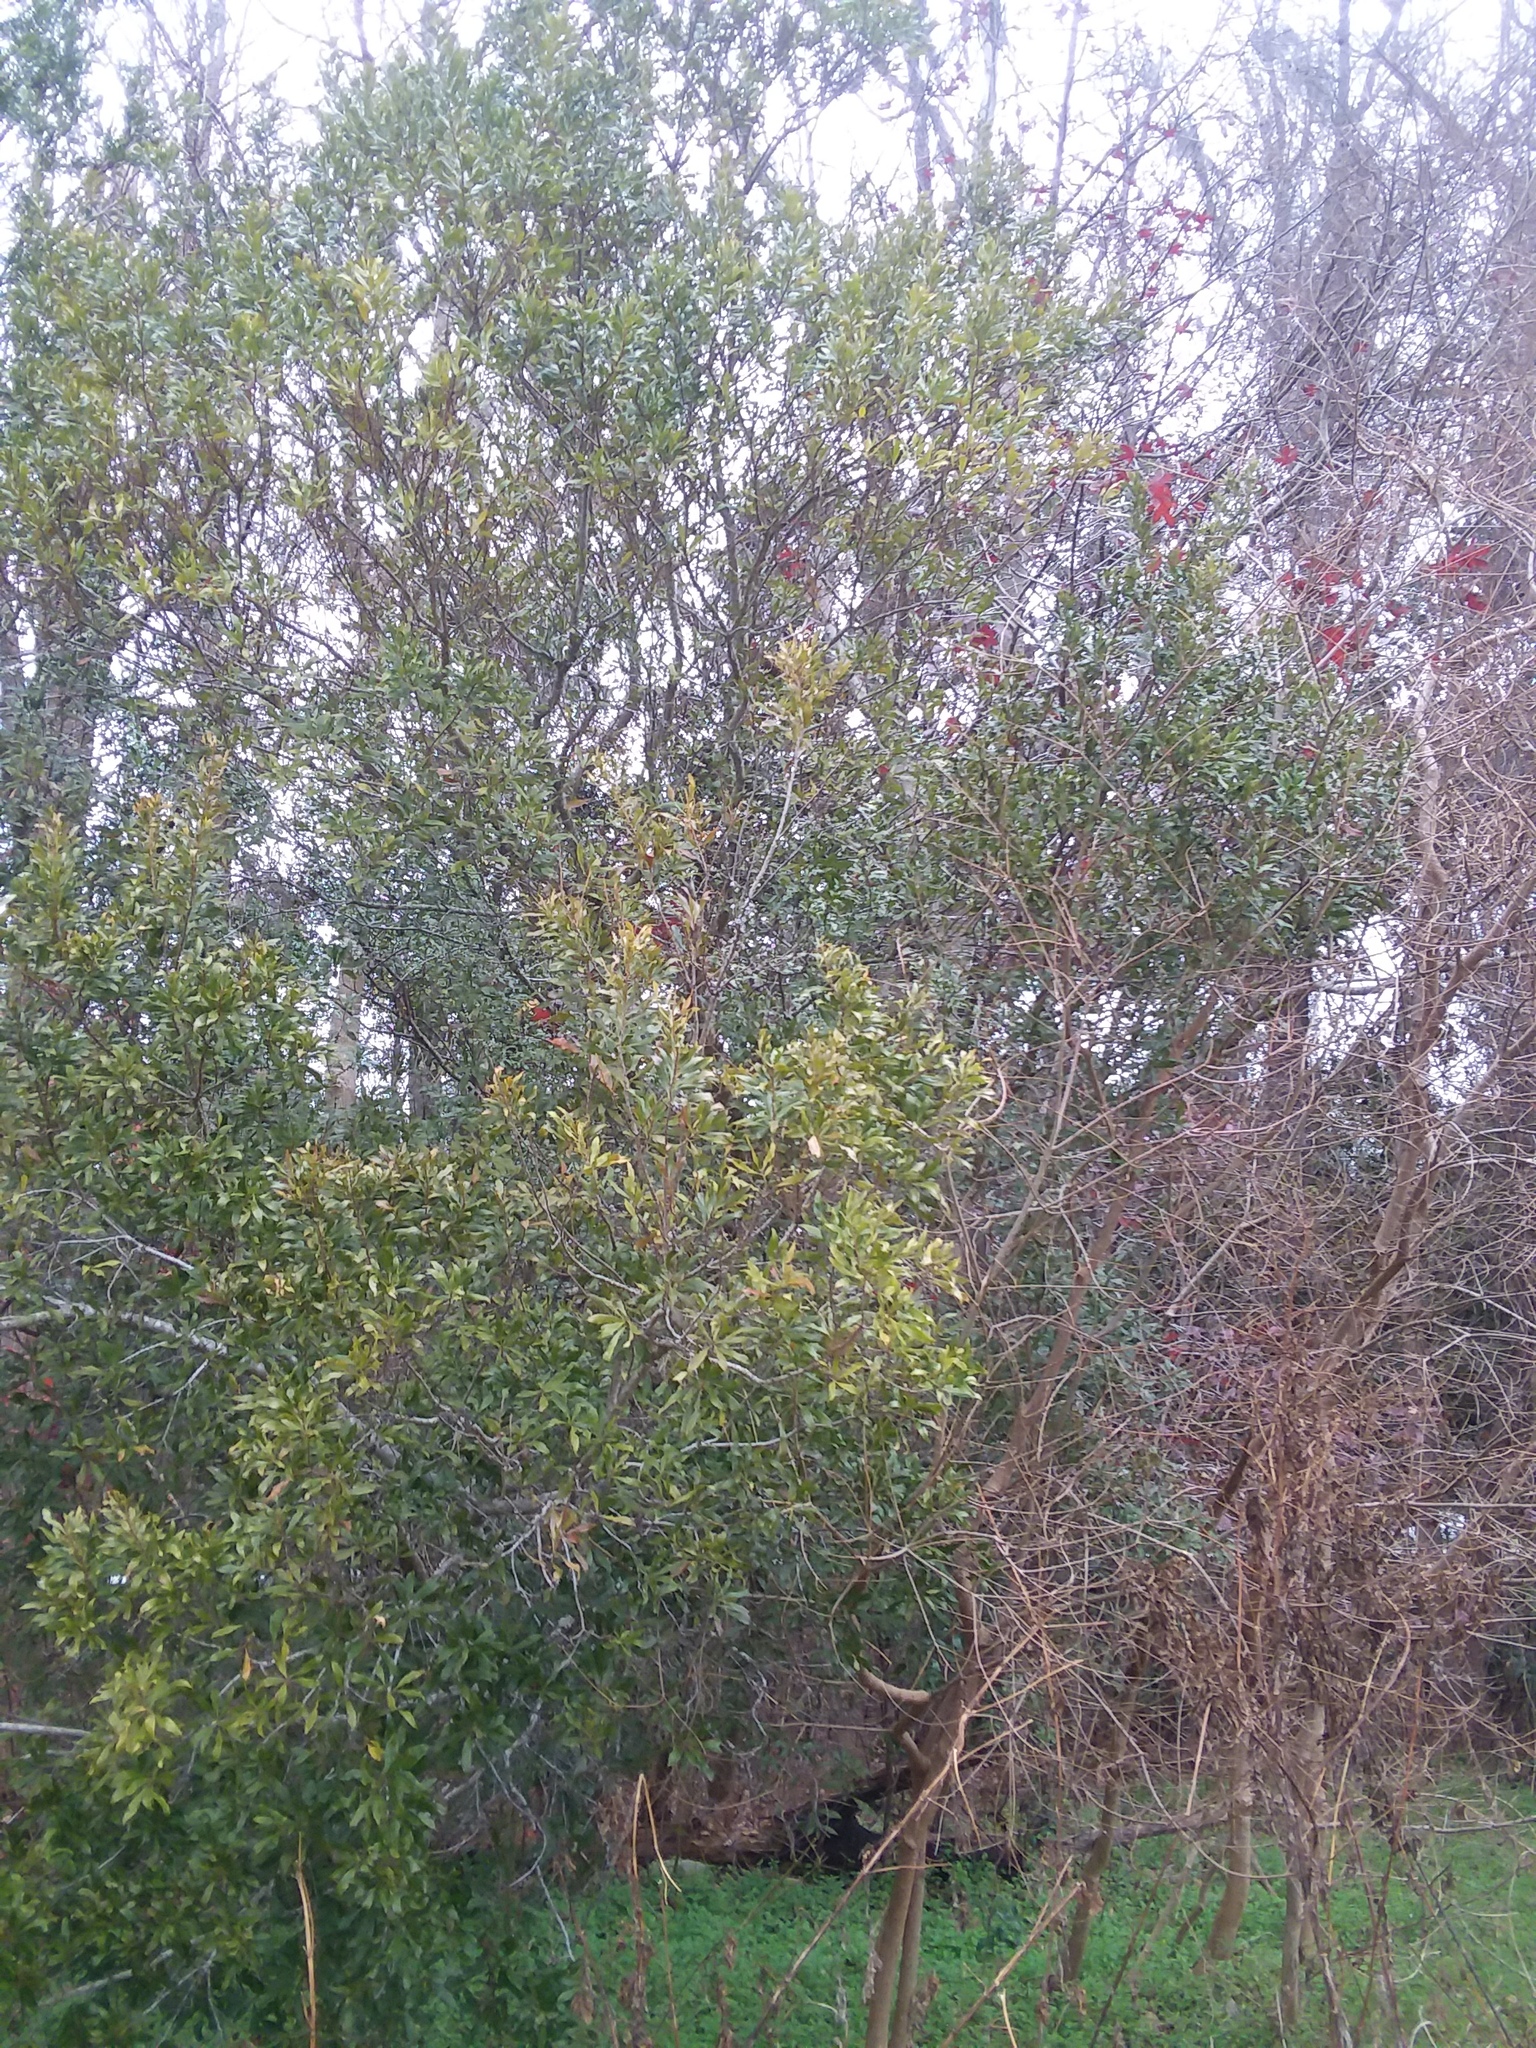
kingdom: Plantae
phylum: Tracheophyta
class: Magnoliopsida
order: Fagales
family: Myricaceae
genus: Morella
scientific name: Morella cerifera
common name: Wax myrtle
